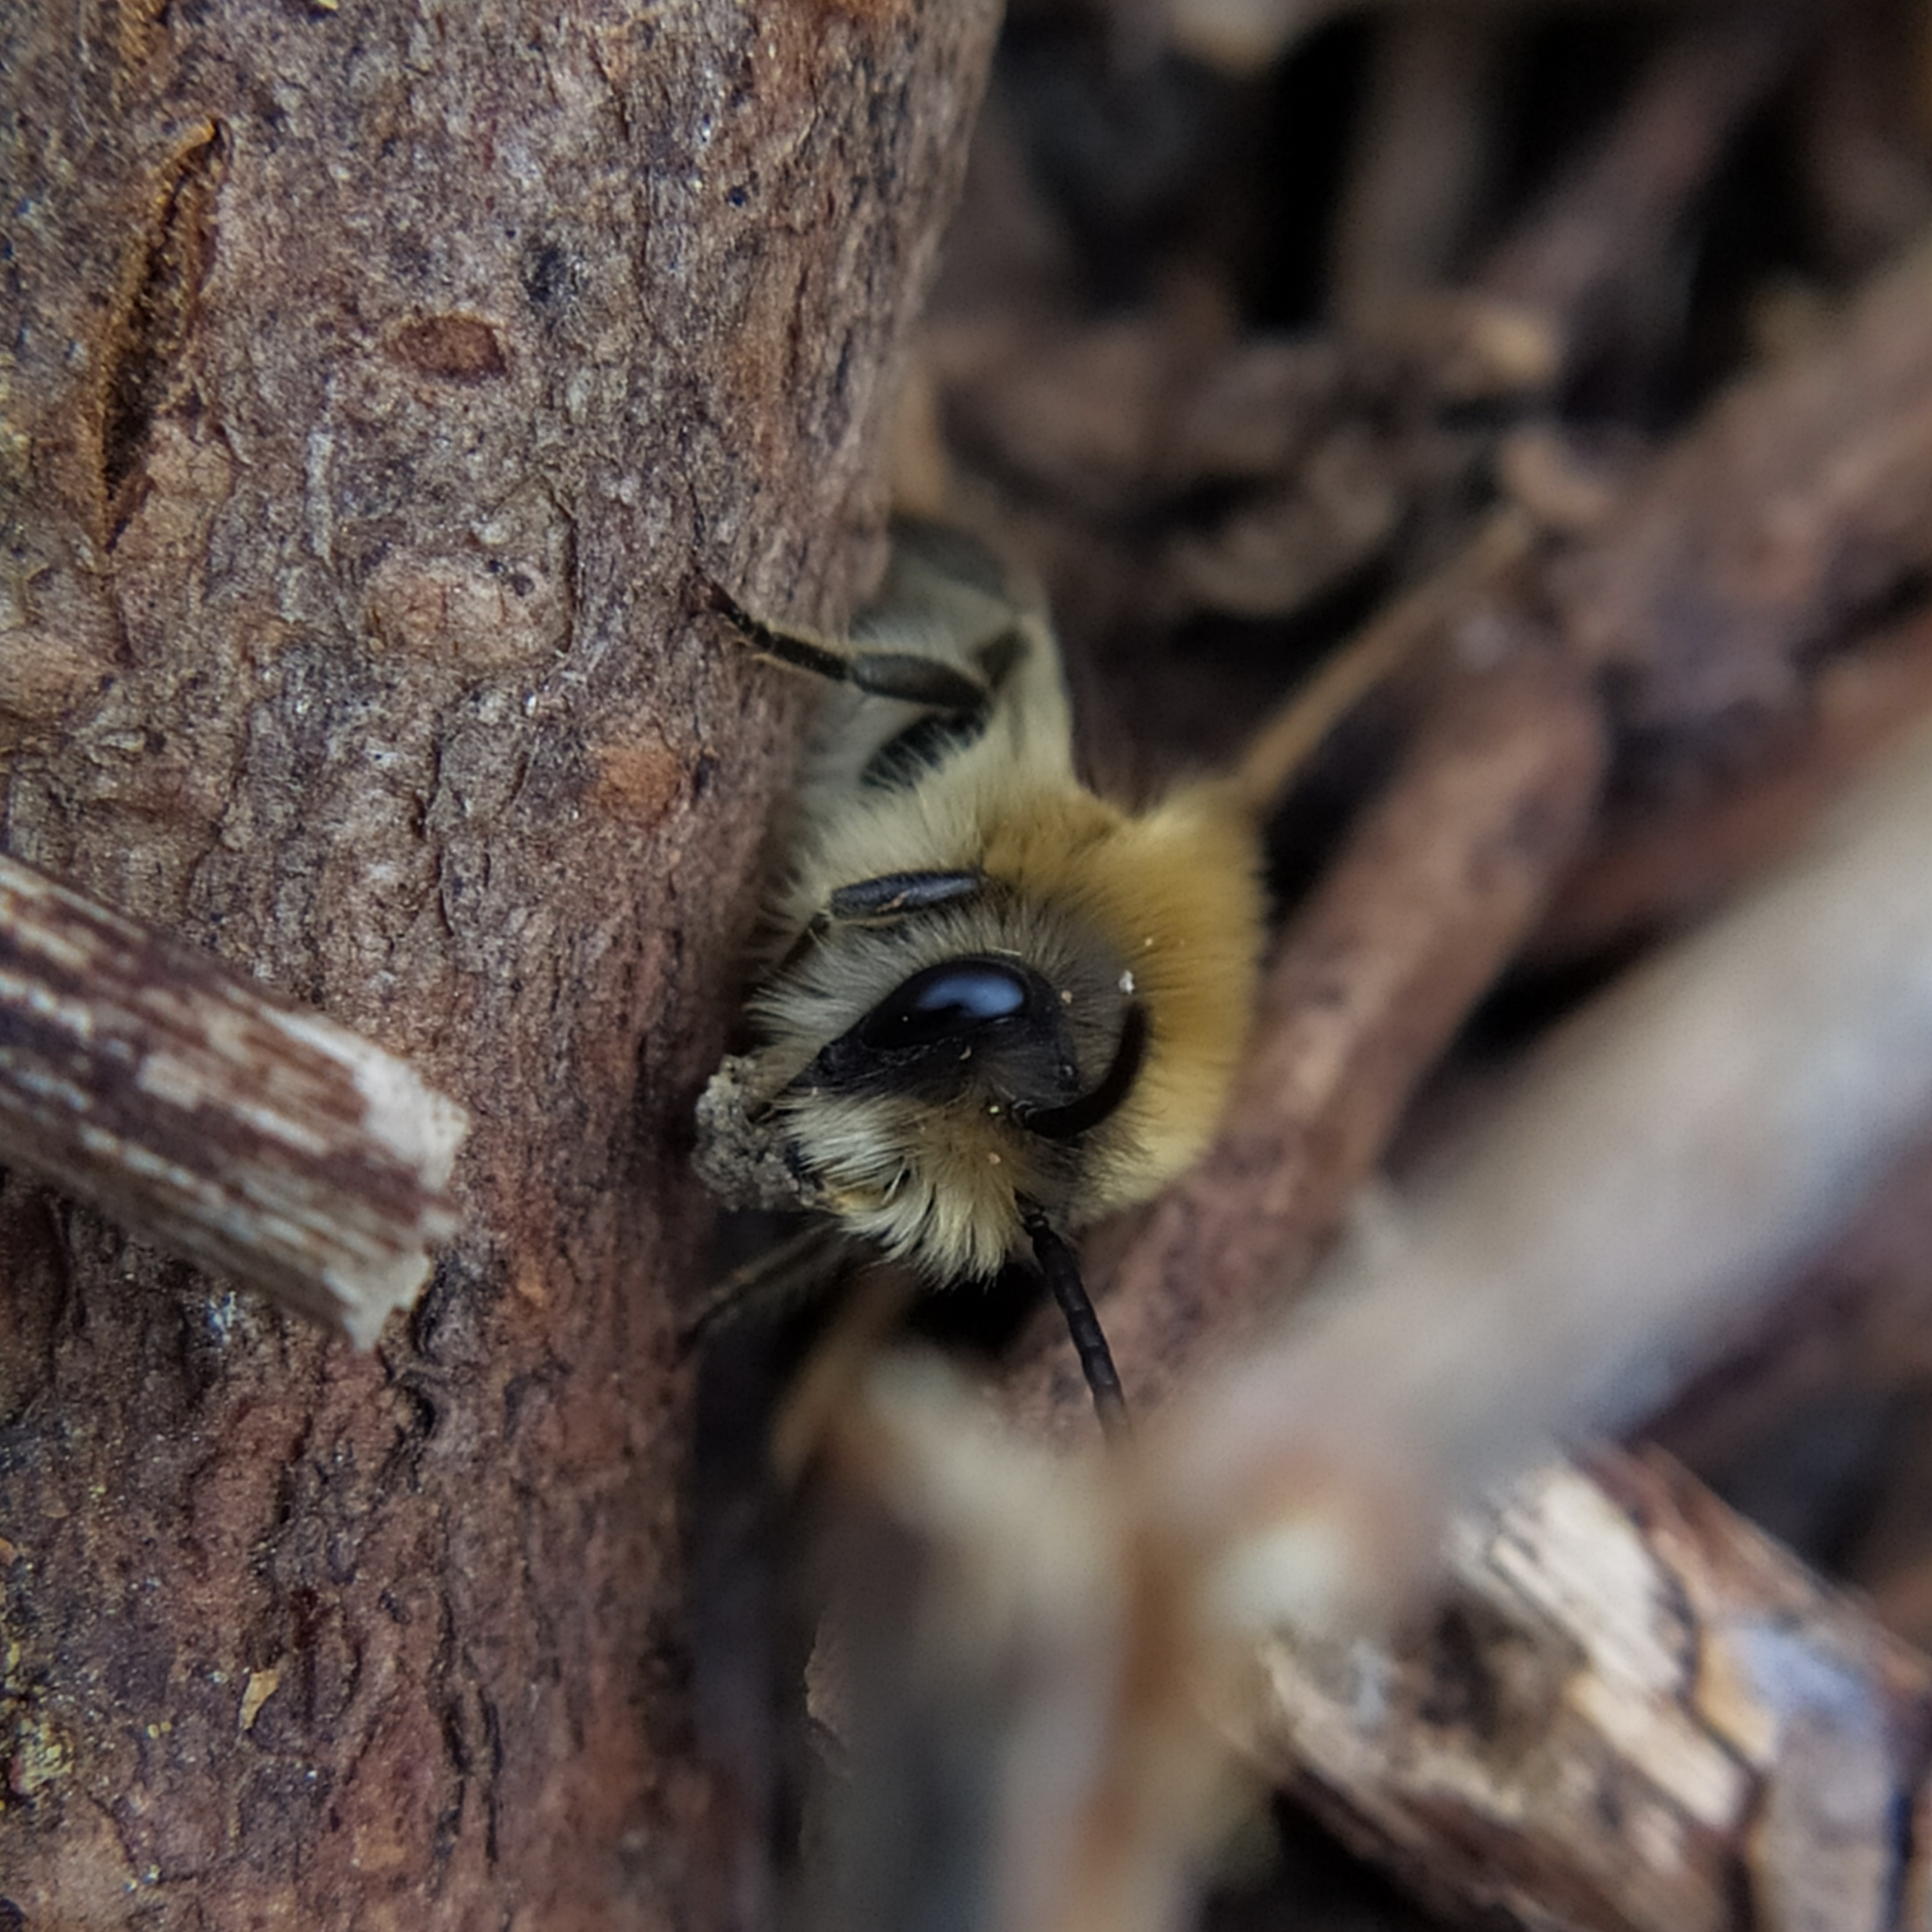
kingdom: Animalia
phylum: Arthropoda
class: Insecta
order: Hymenoptera
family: Colletidae
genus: Colletes
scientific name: Colletes cunicularius
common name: Early colletes
